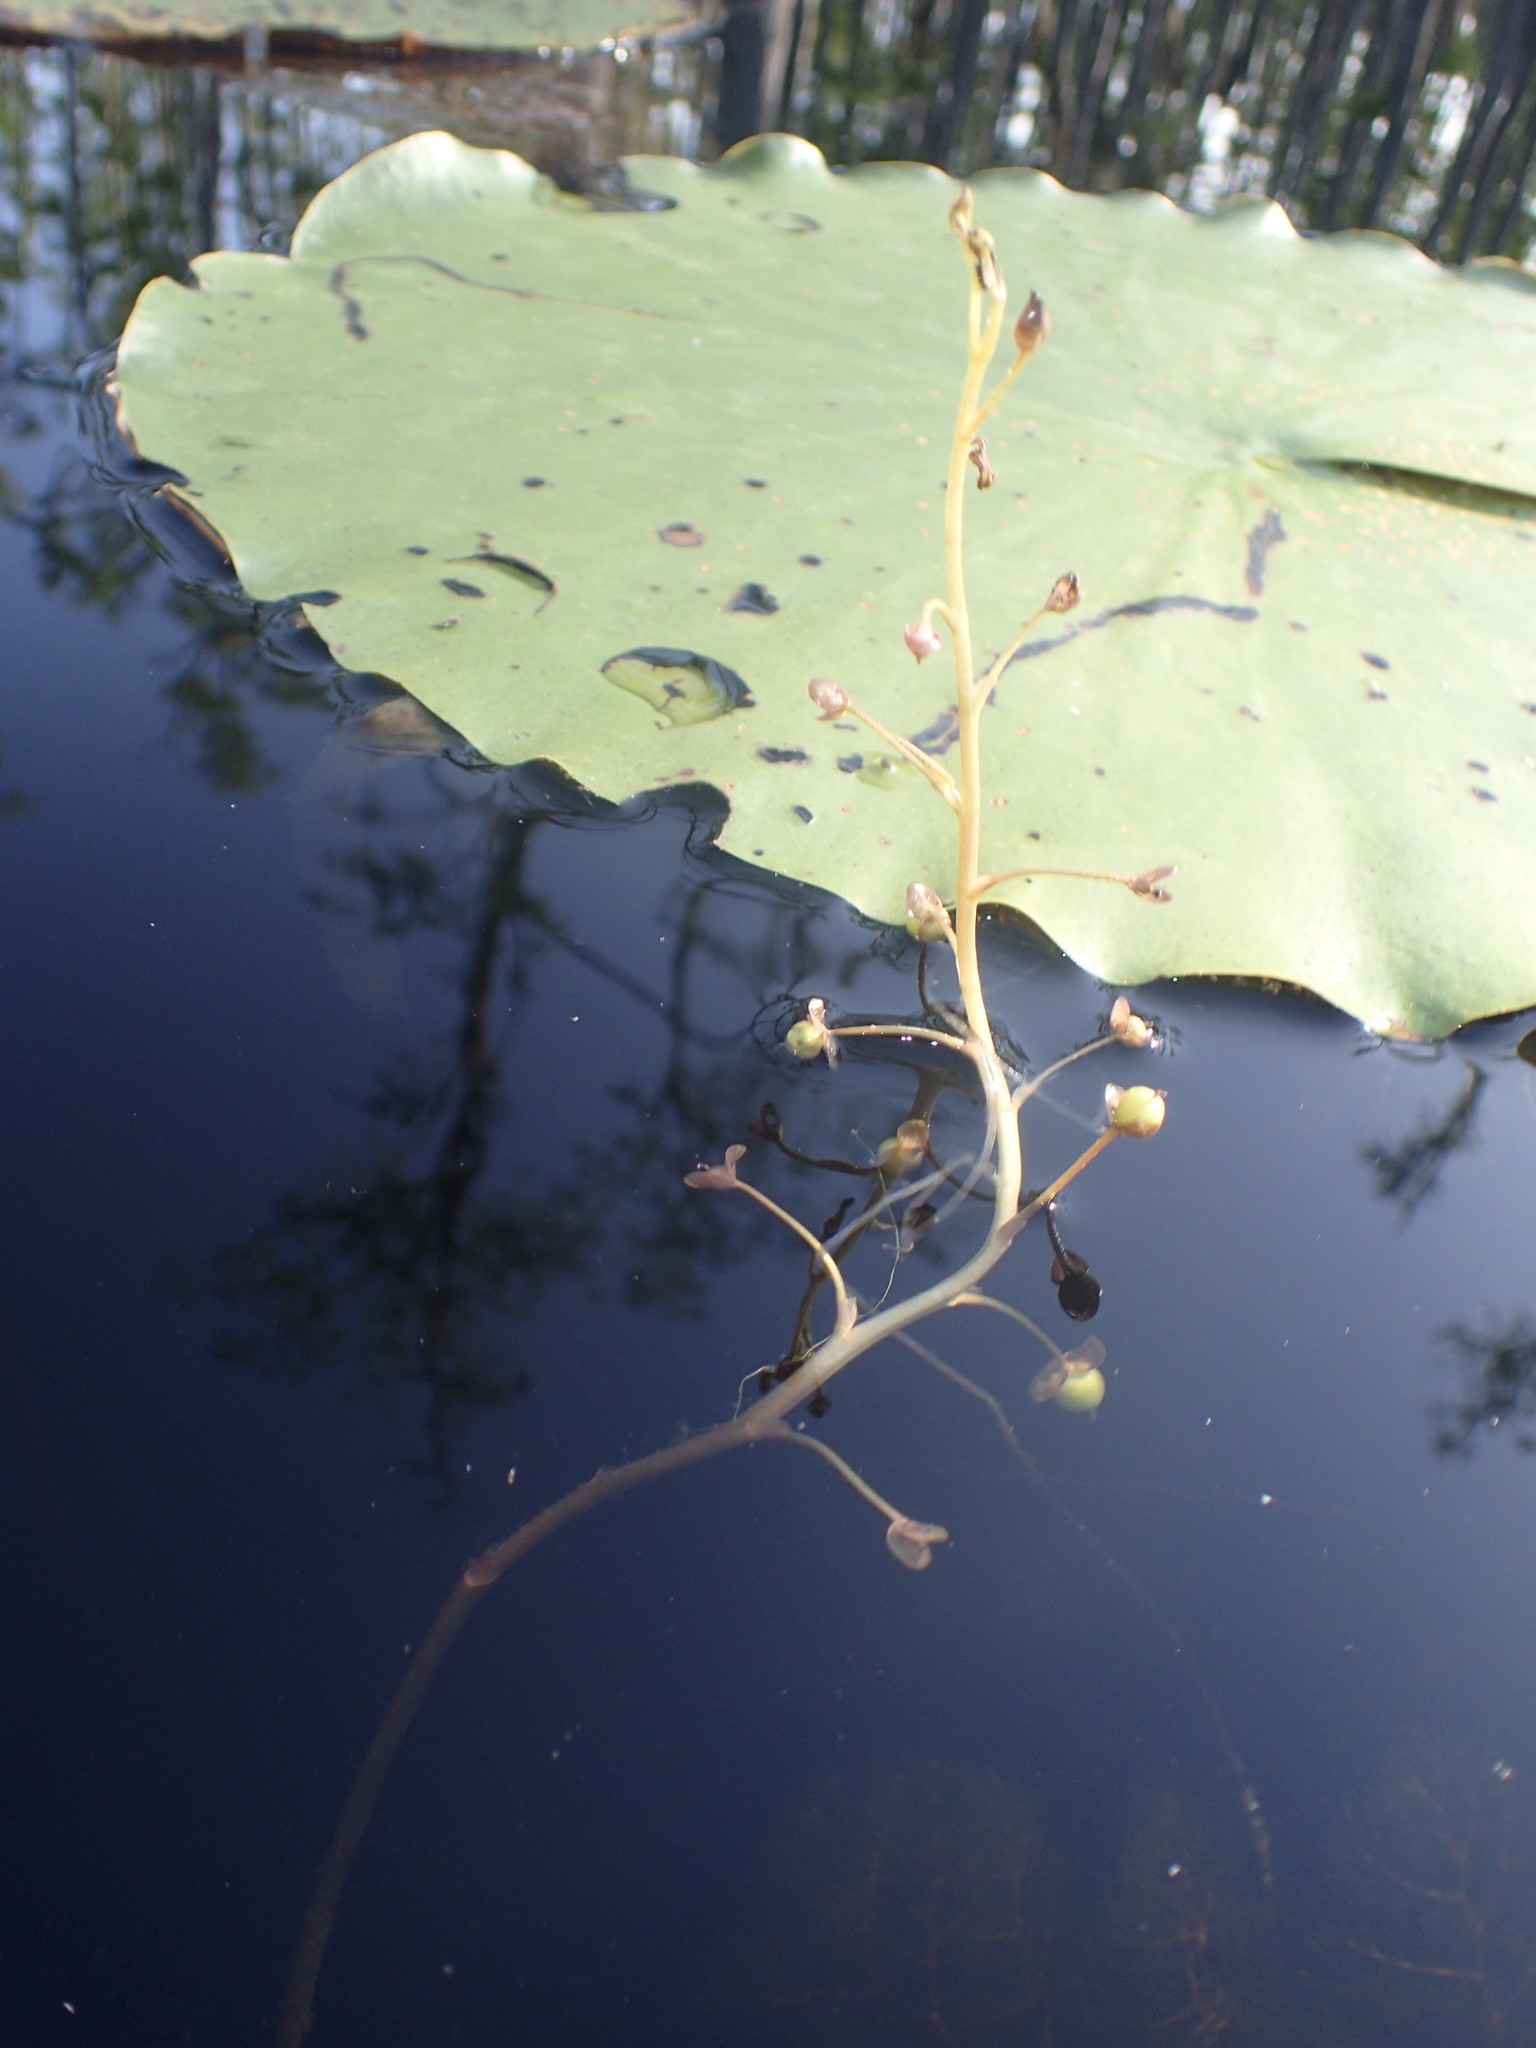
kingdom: Plantae
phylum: Tracheophyta
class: Magnoliopsida
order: Lamiales
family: Lentibulariaceae
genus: Utricularia
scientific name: Utricularia foliosa
